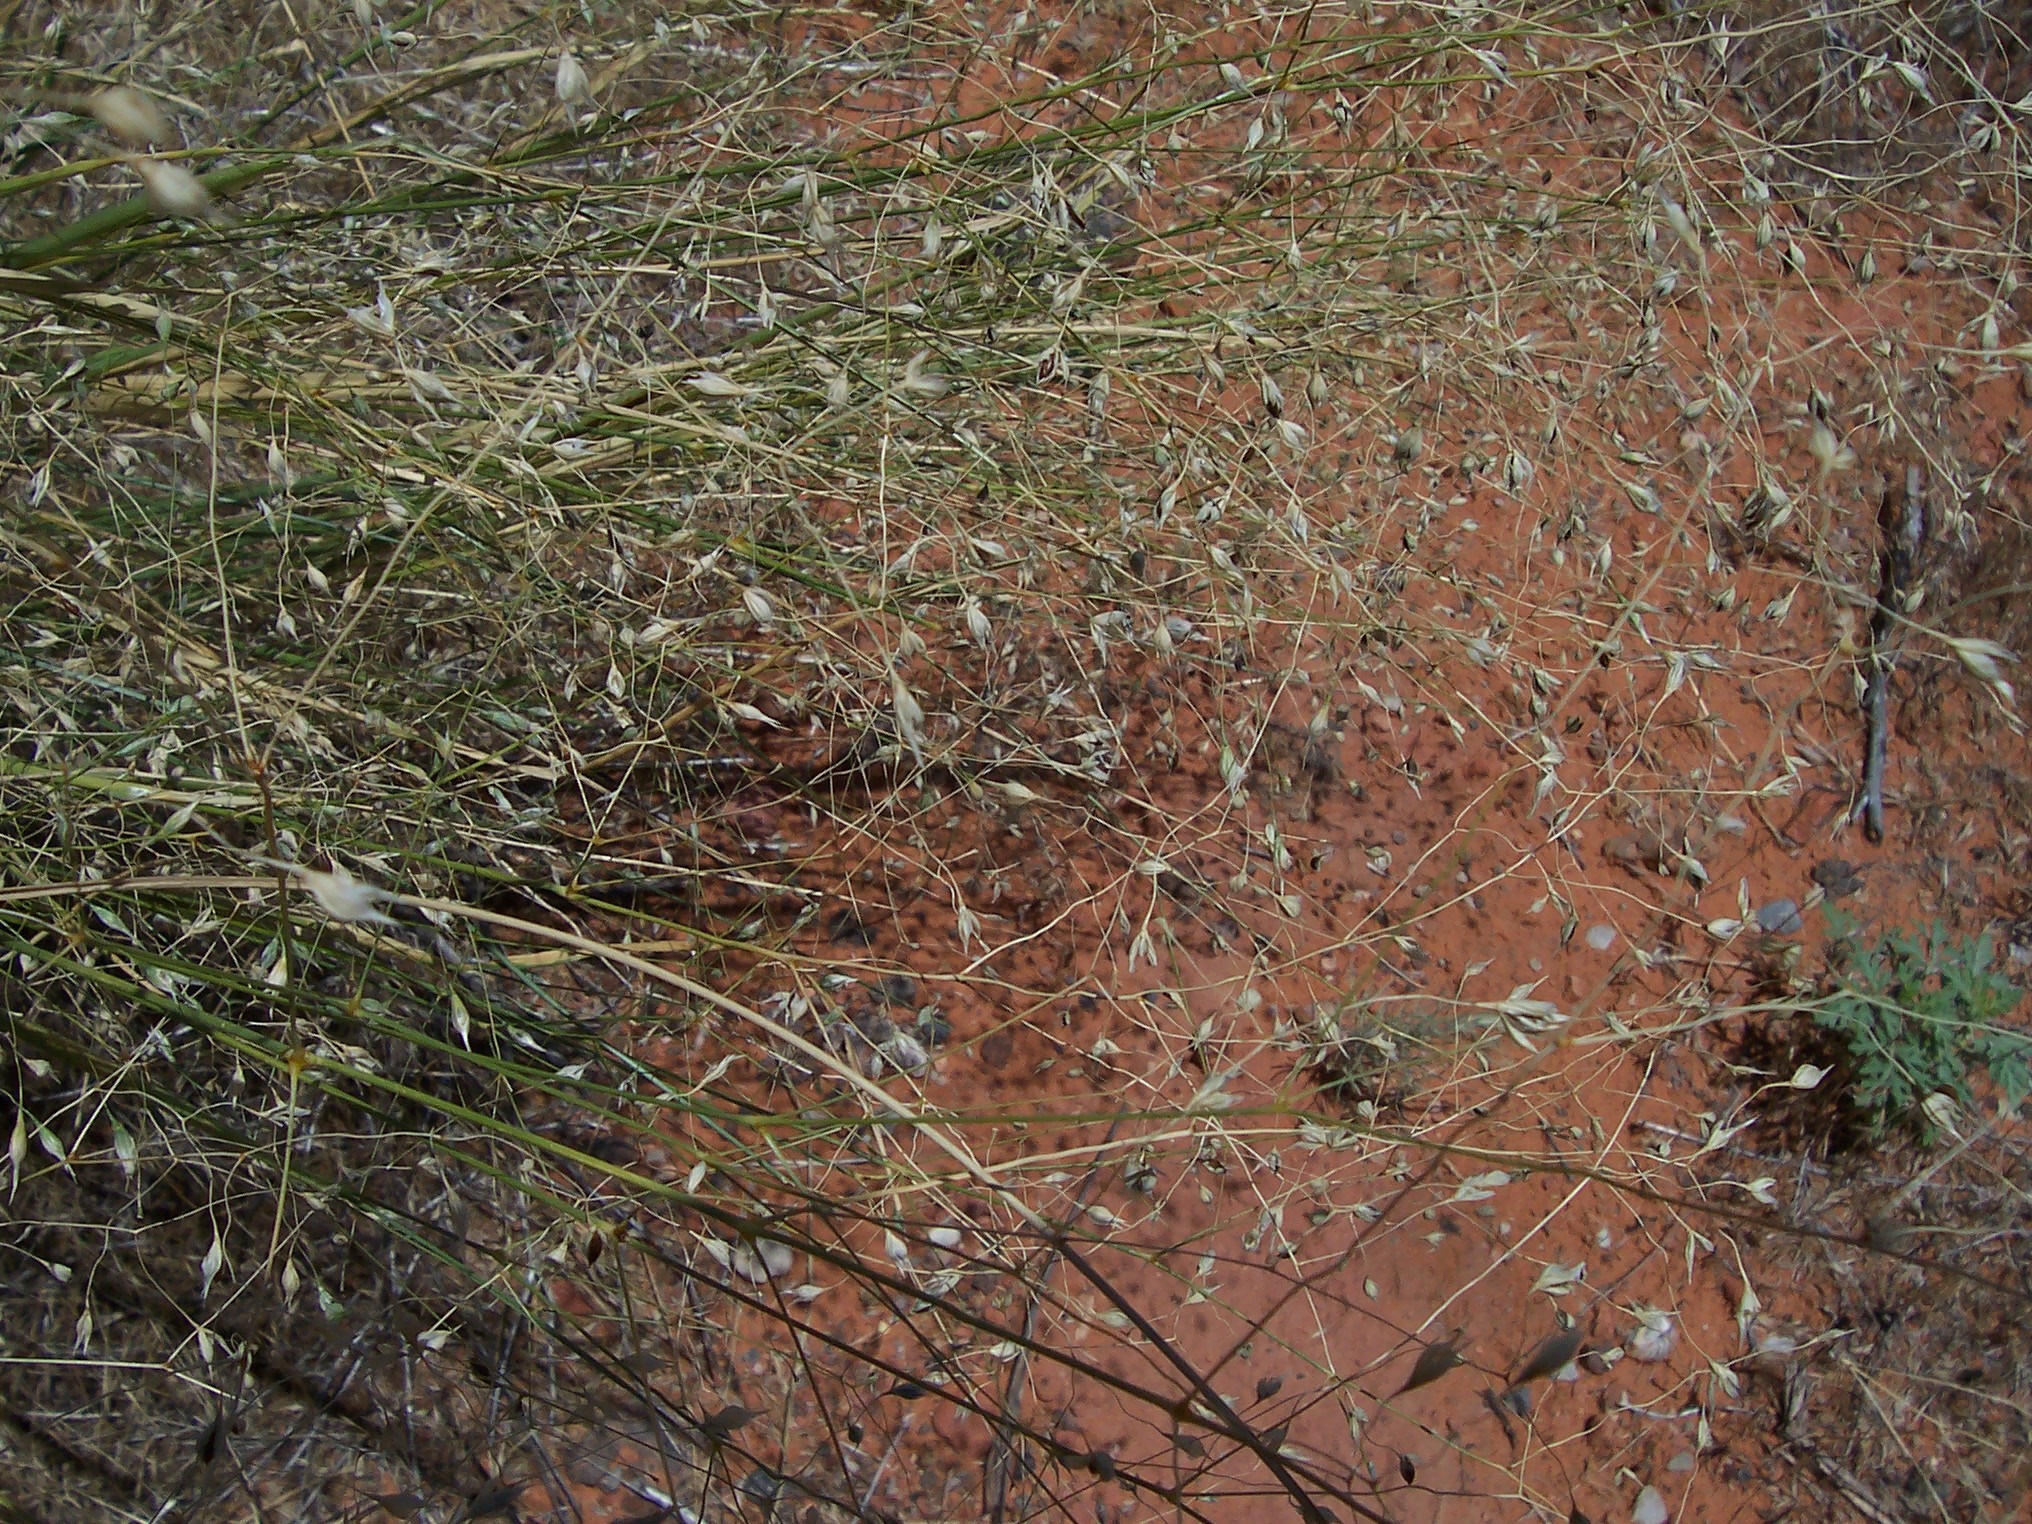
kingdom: Plantae
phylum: Tracheophyta
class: Liliopsida
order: Poales
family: Poaceae
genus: Eriocoma
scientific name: Eriocoma hymenoides
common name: Indian mountain ricegrass
